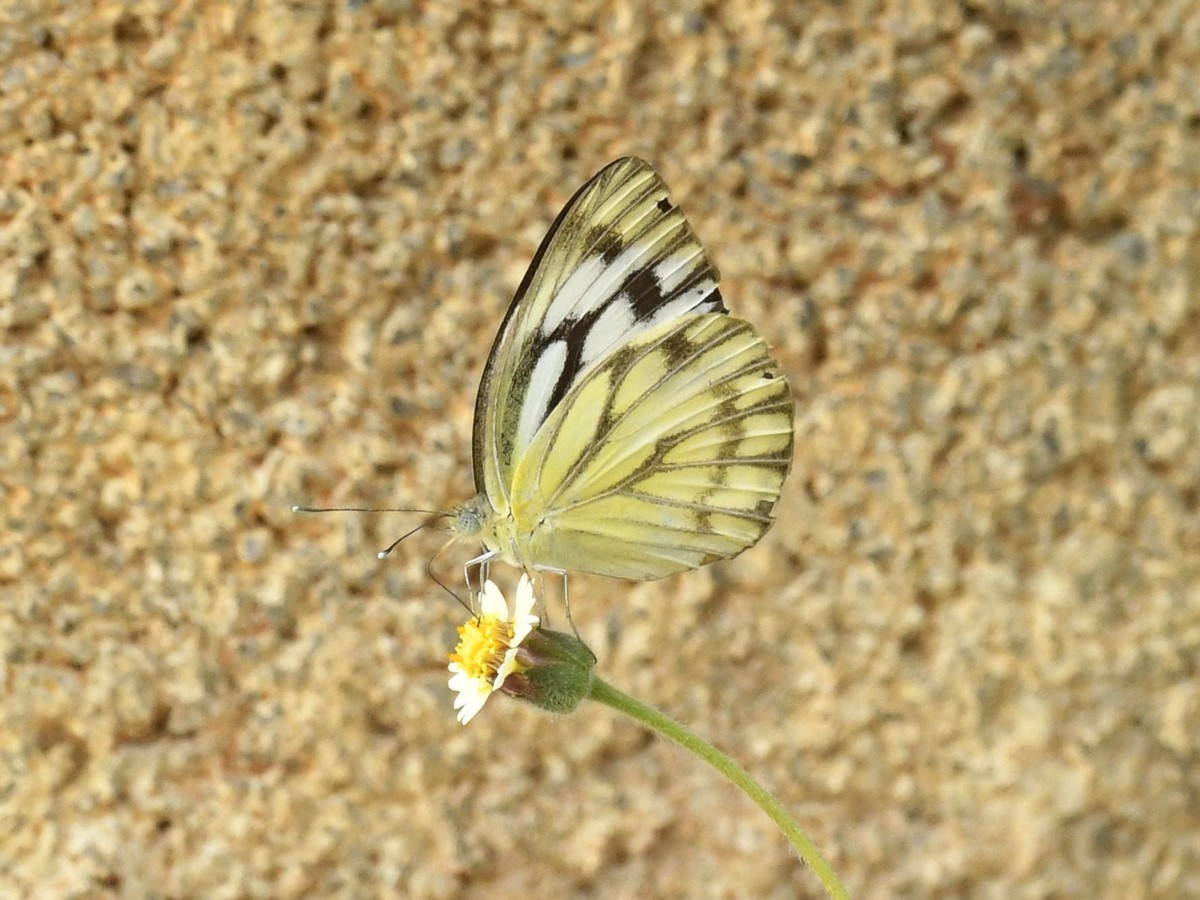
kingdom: Animalia
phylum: Arthropoda
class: Insecta
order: Lepidoptera
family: Pieridae
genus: Cepora
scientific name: Cepora nerissa
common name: Common gull
